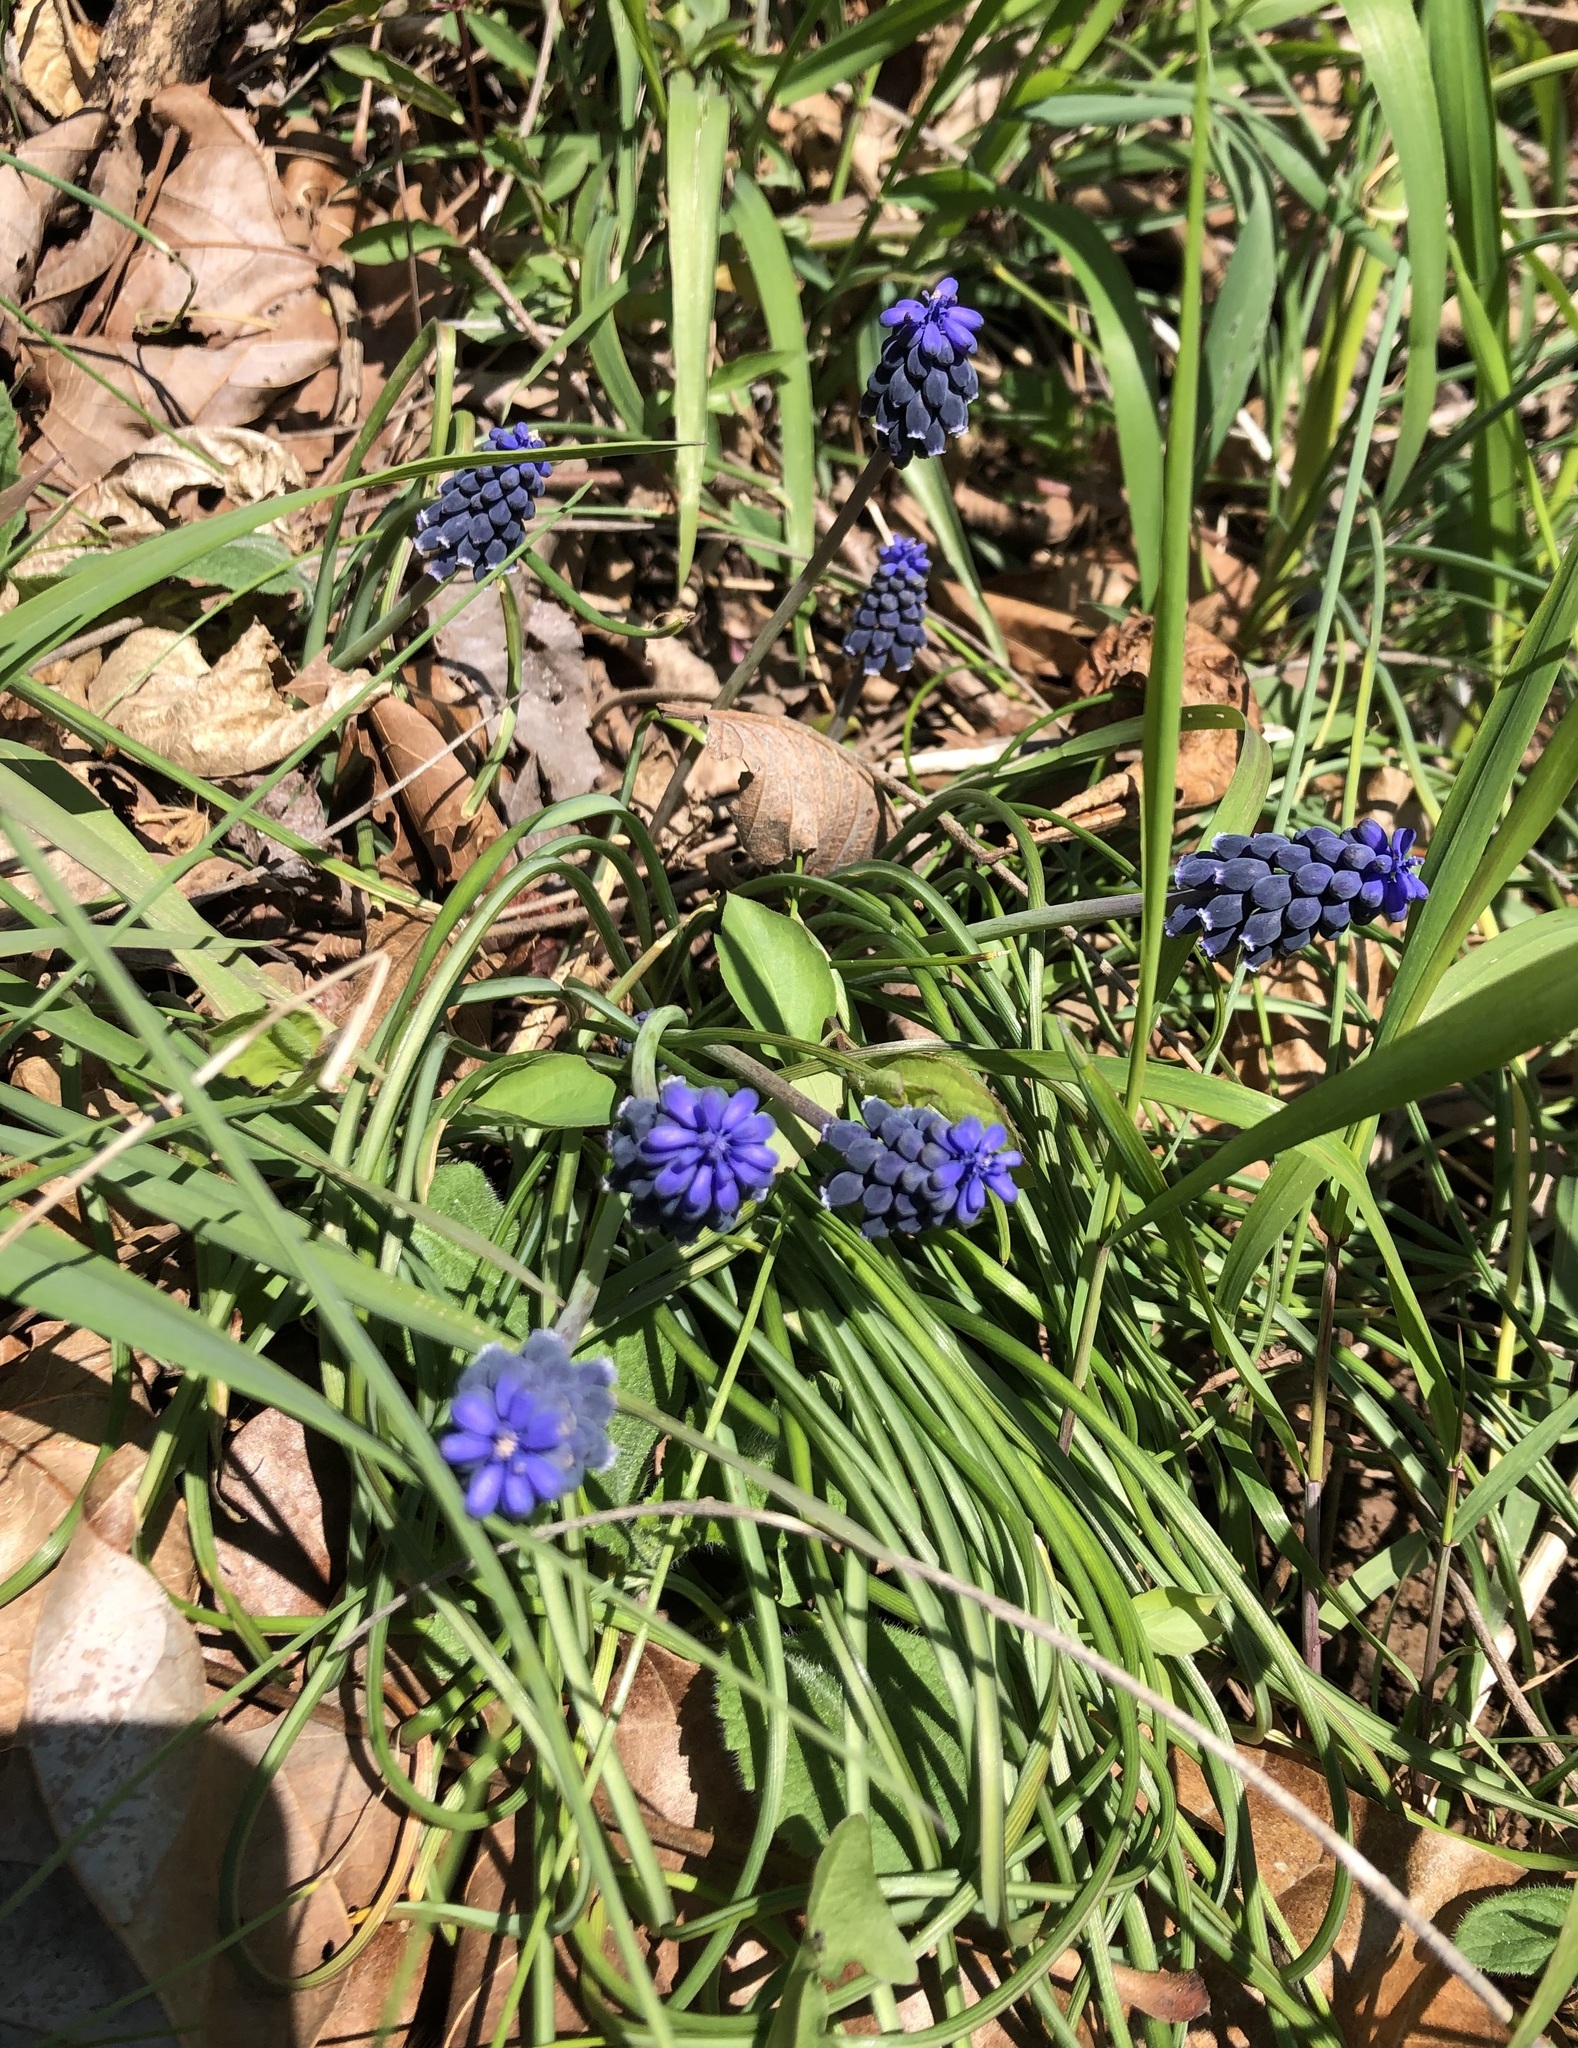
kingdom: Plantae
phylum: Tracheophyta
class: Liliopsida
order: Asparagales
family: Asparagaceae
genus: Muscari
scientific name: Muscari neglectum
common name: Grape-hyacinth
